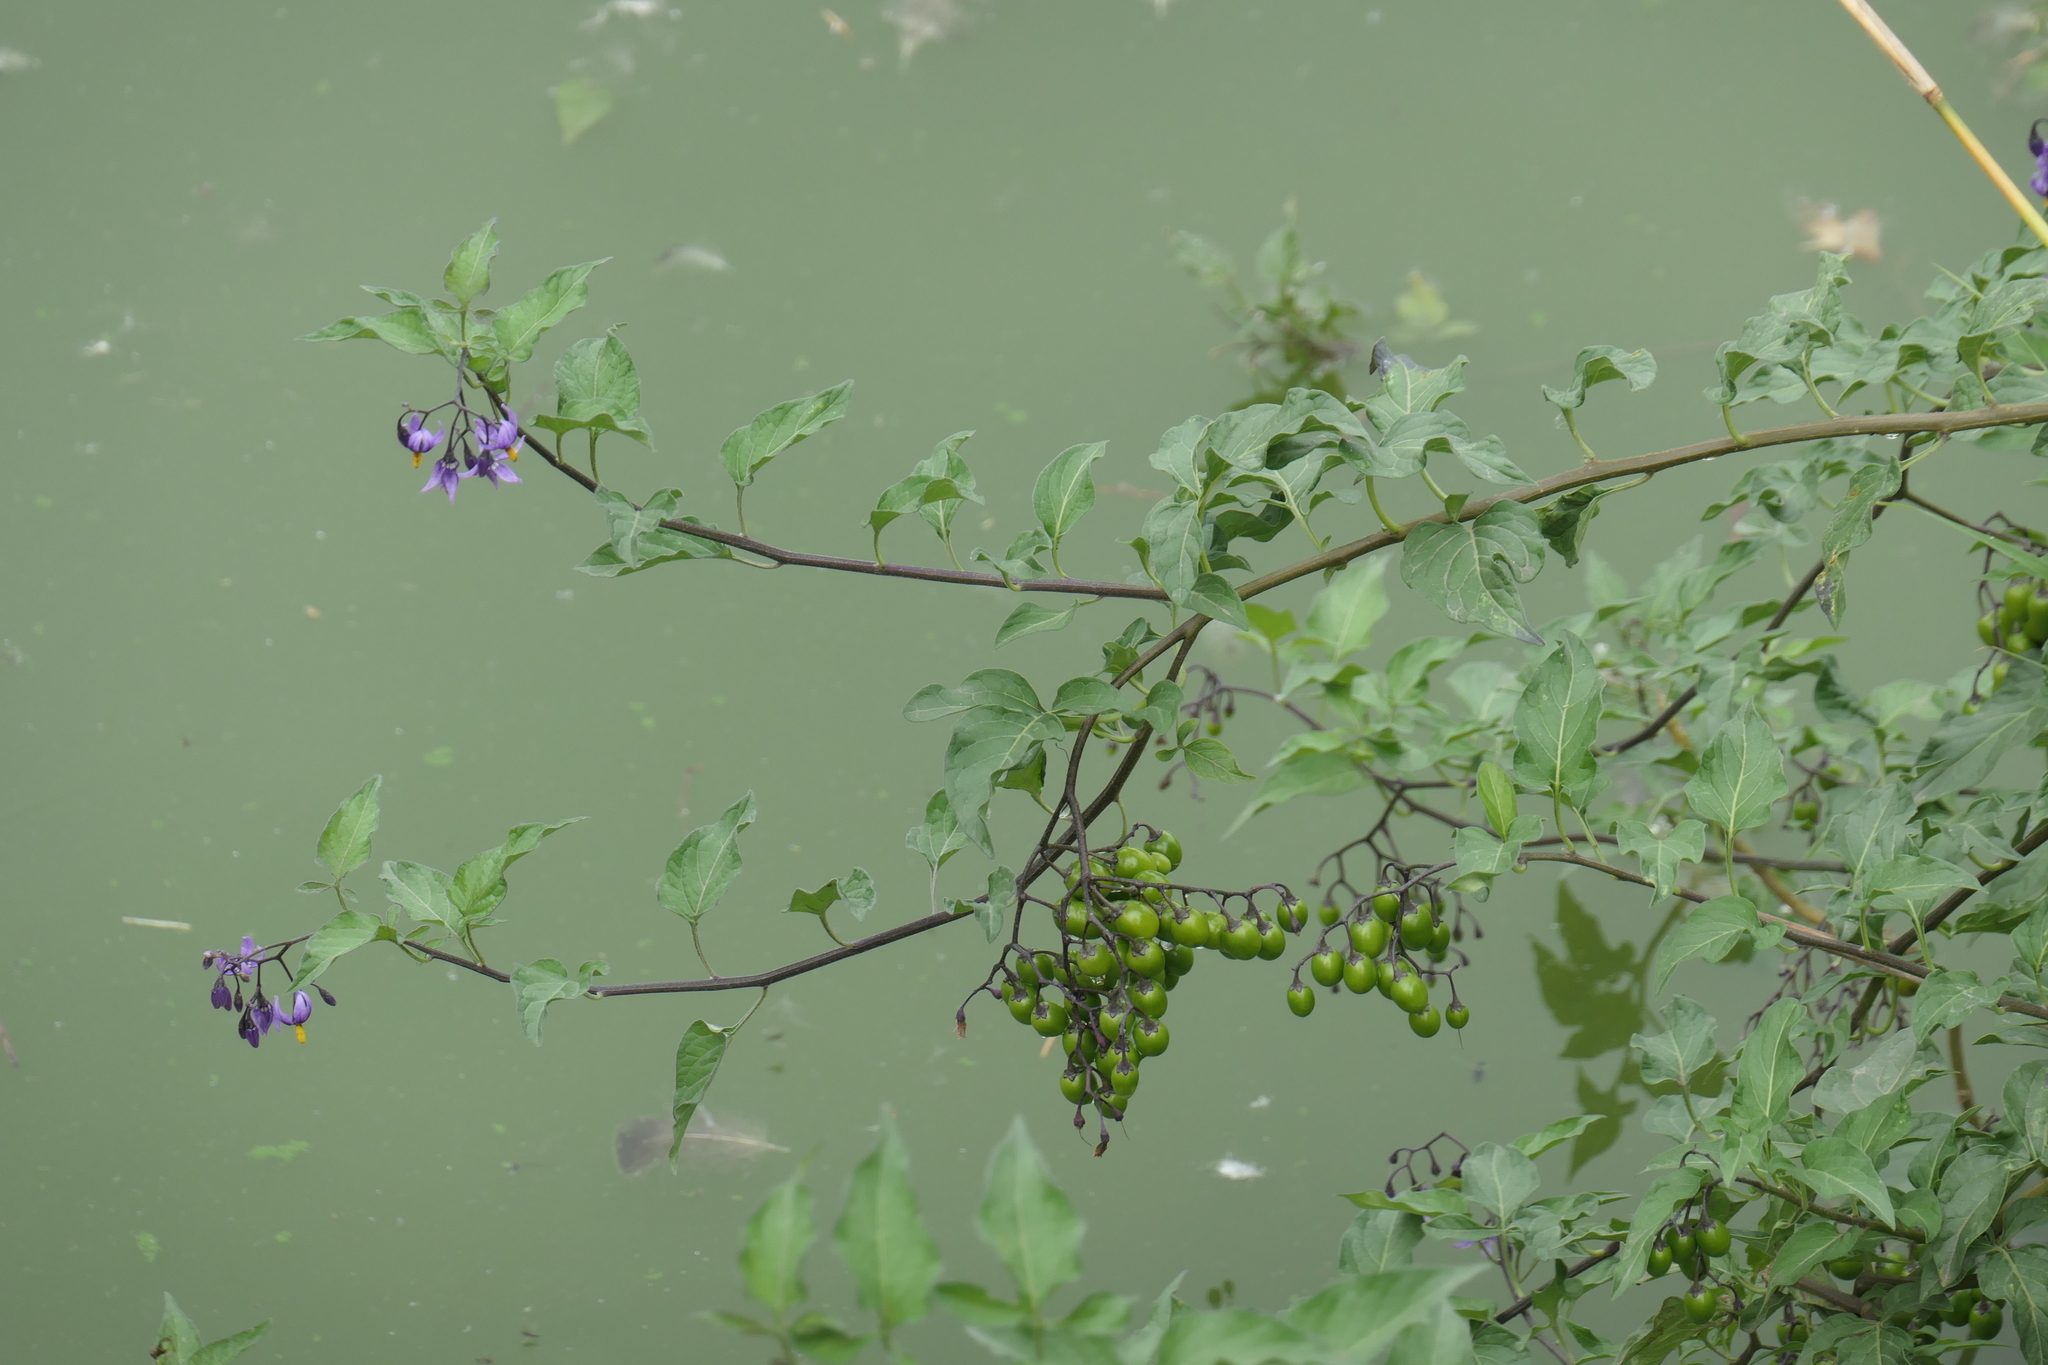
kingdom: Plantae
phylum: Tracheophyta
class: Magnoliopsida
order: Solanales
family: Solanaceae
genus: Solanum
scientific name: Solanum dulcamara
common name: Climbing nightshade
